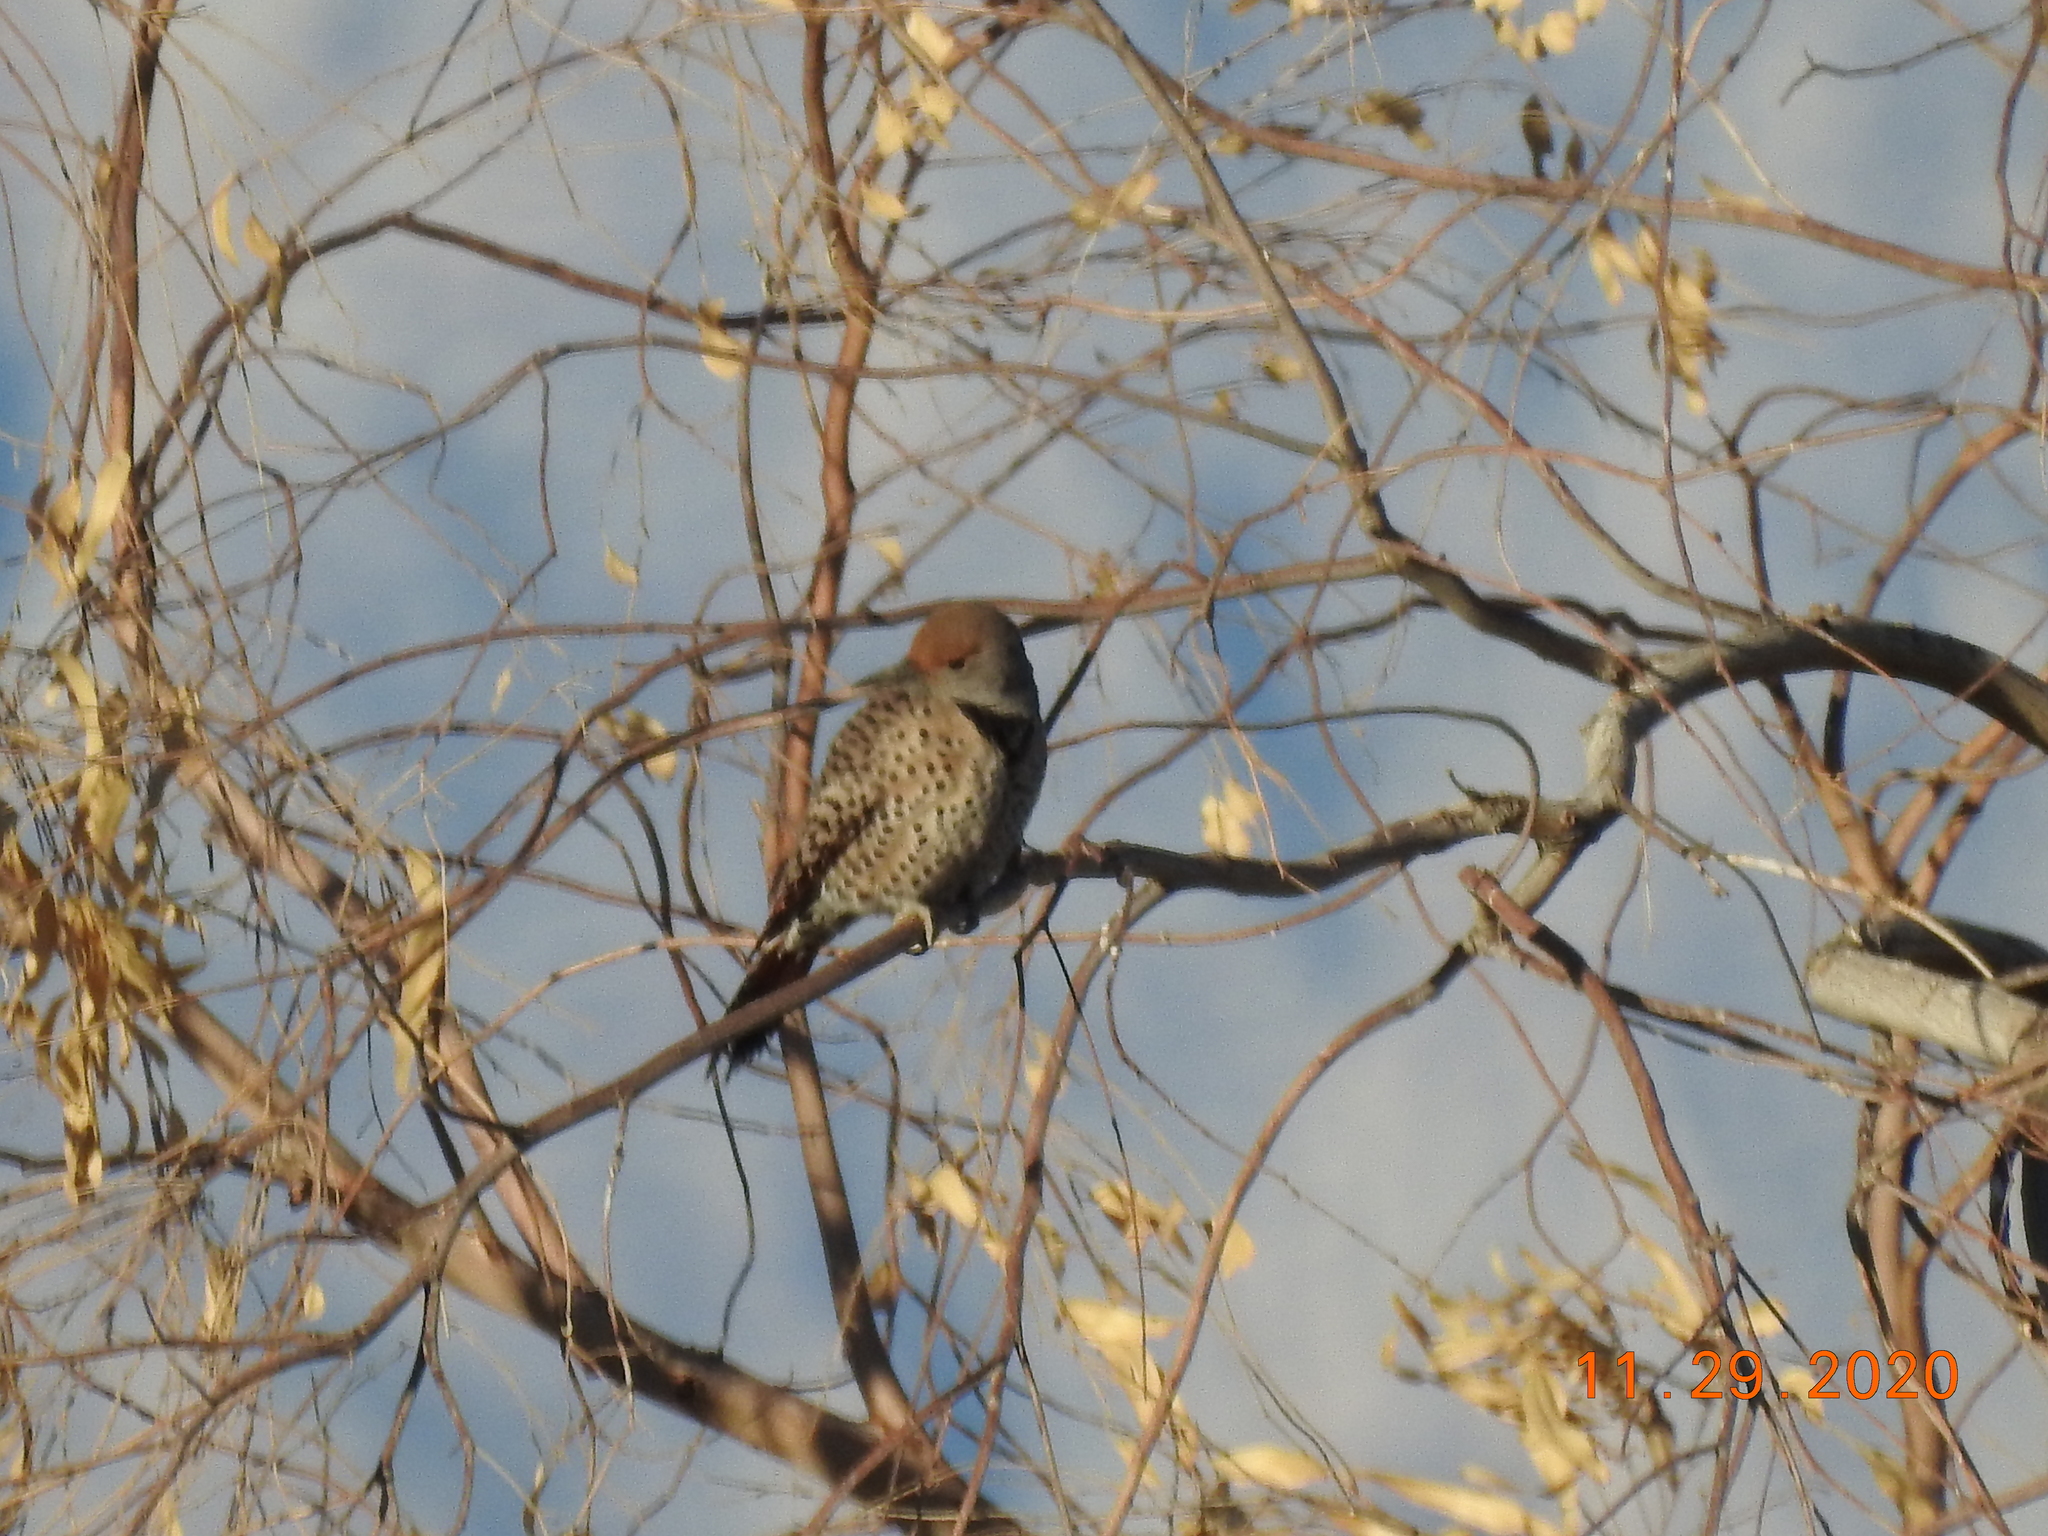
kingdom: Animalia
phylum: Chordata
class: Aves
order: Piciformes
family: Picidae
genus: Colaptes
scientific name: Colaptes auratus
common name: Northern flicker
